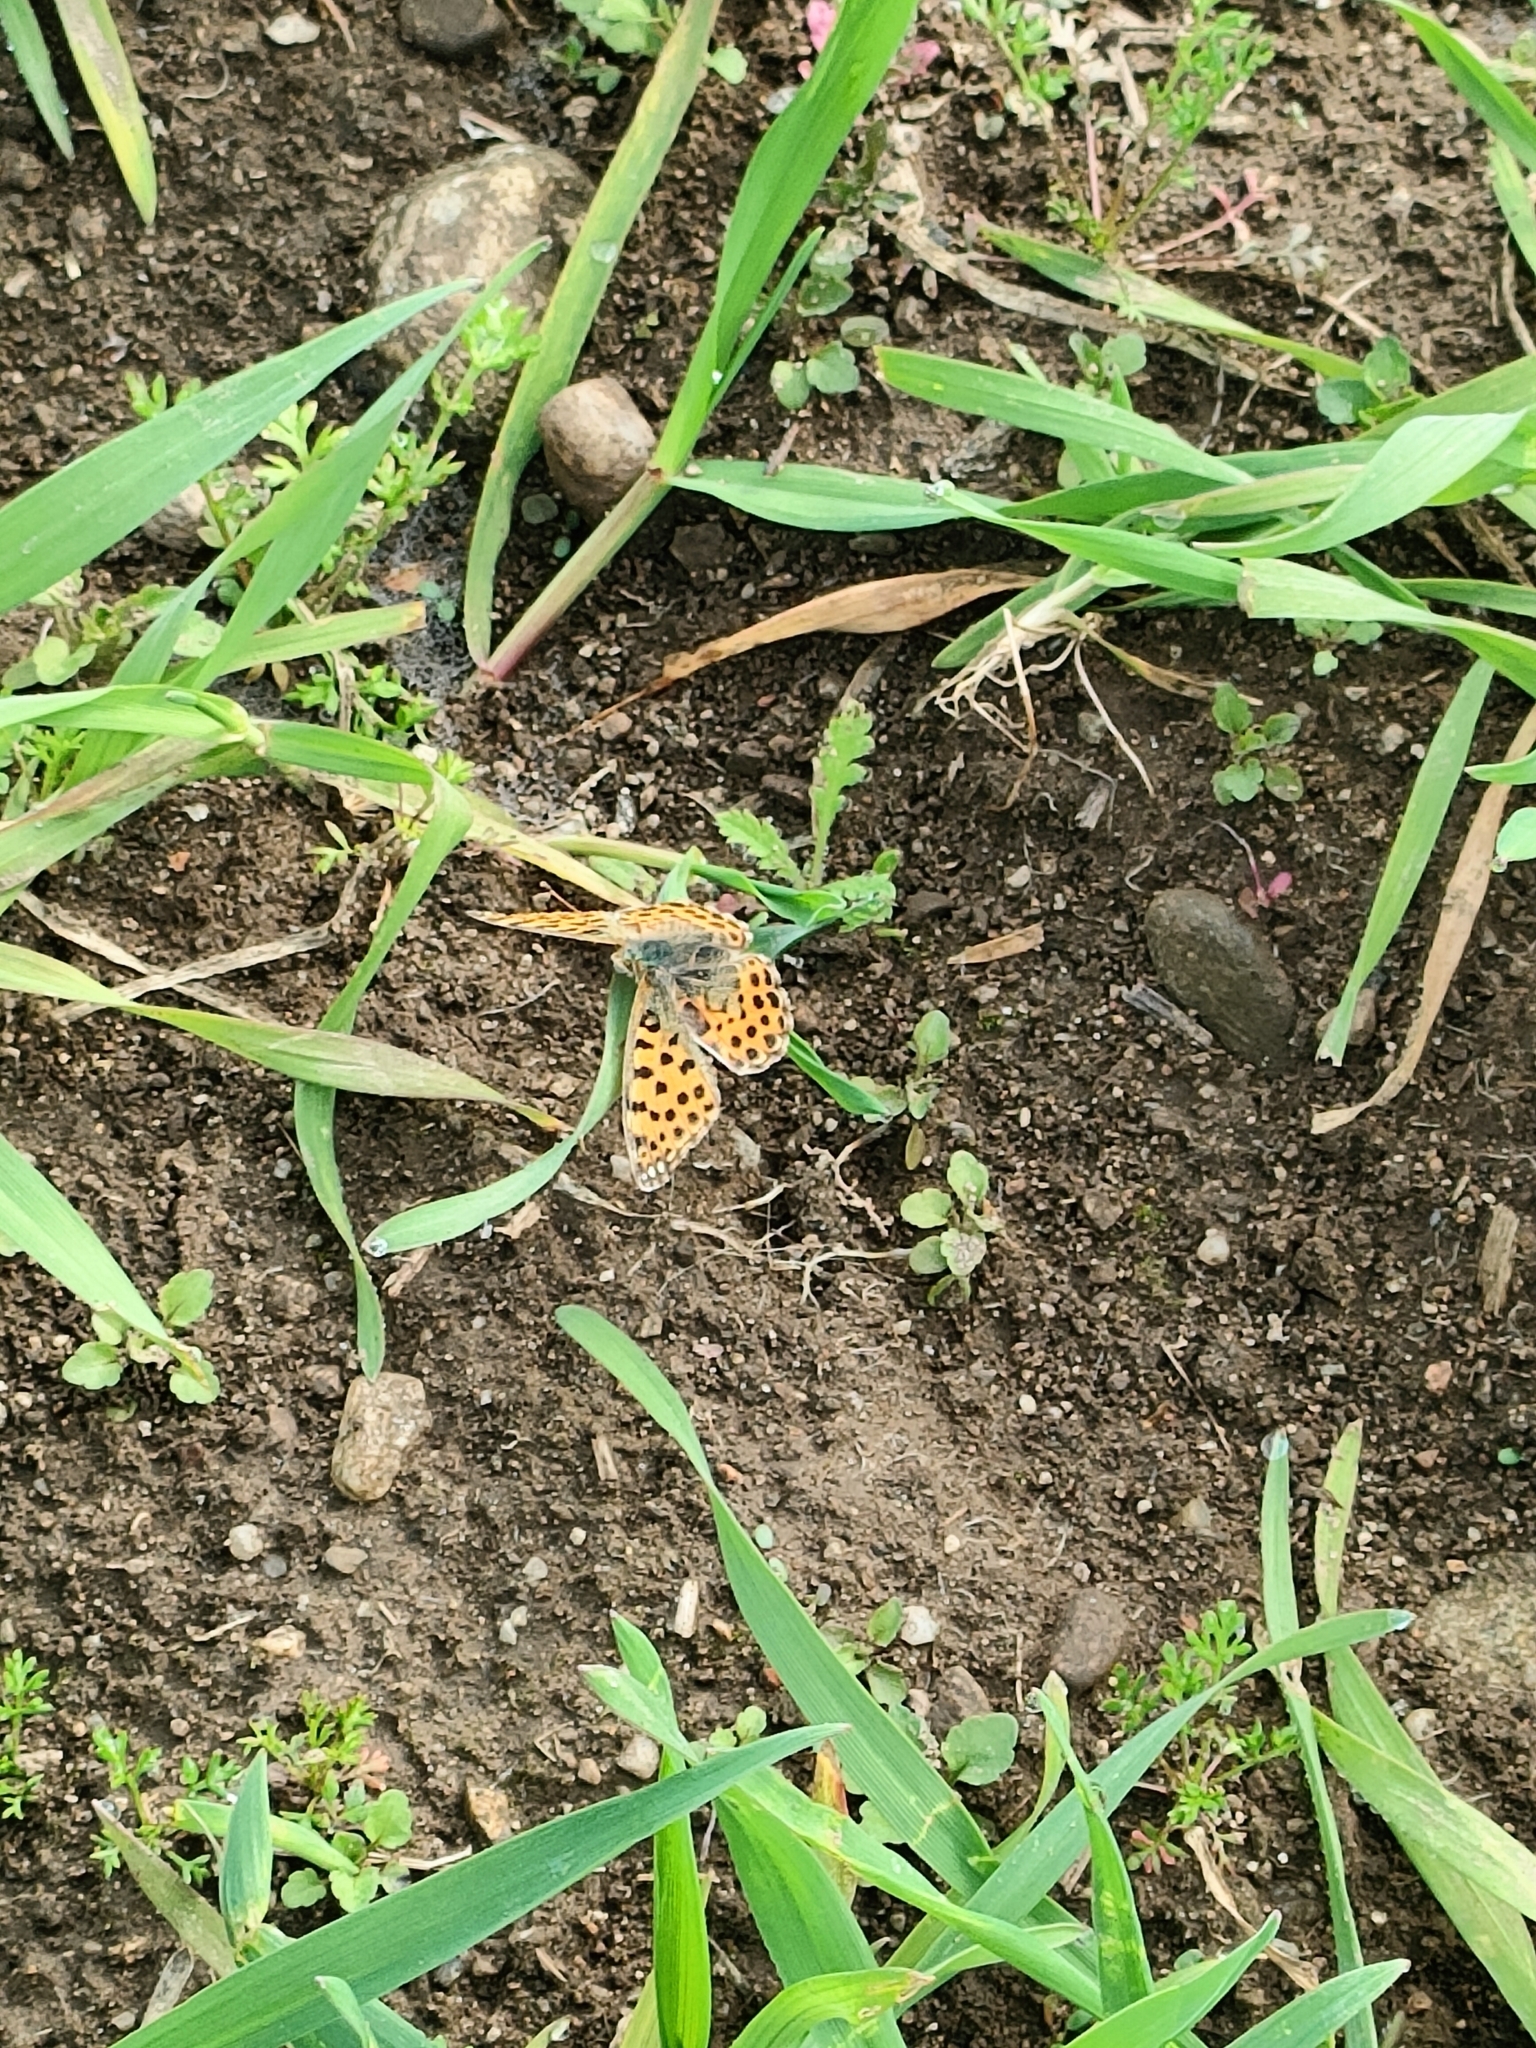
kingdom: Animalia
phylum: Arthropoda
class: Insecta
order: Lepidoptera
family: Nymphalidae
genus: Issoria
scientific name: Issoria lathonia
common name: Queen of spain fritillary
